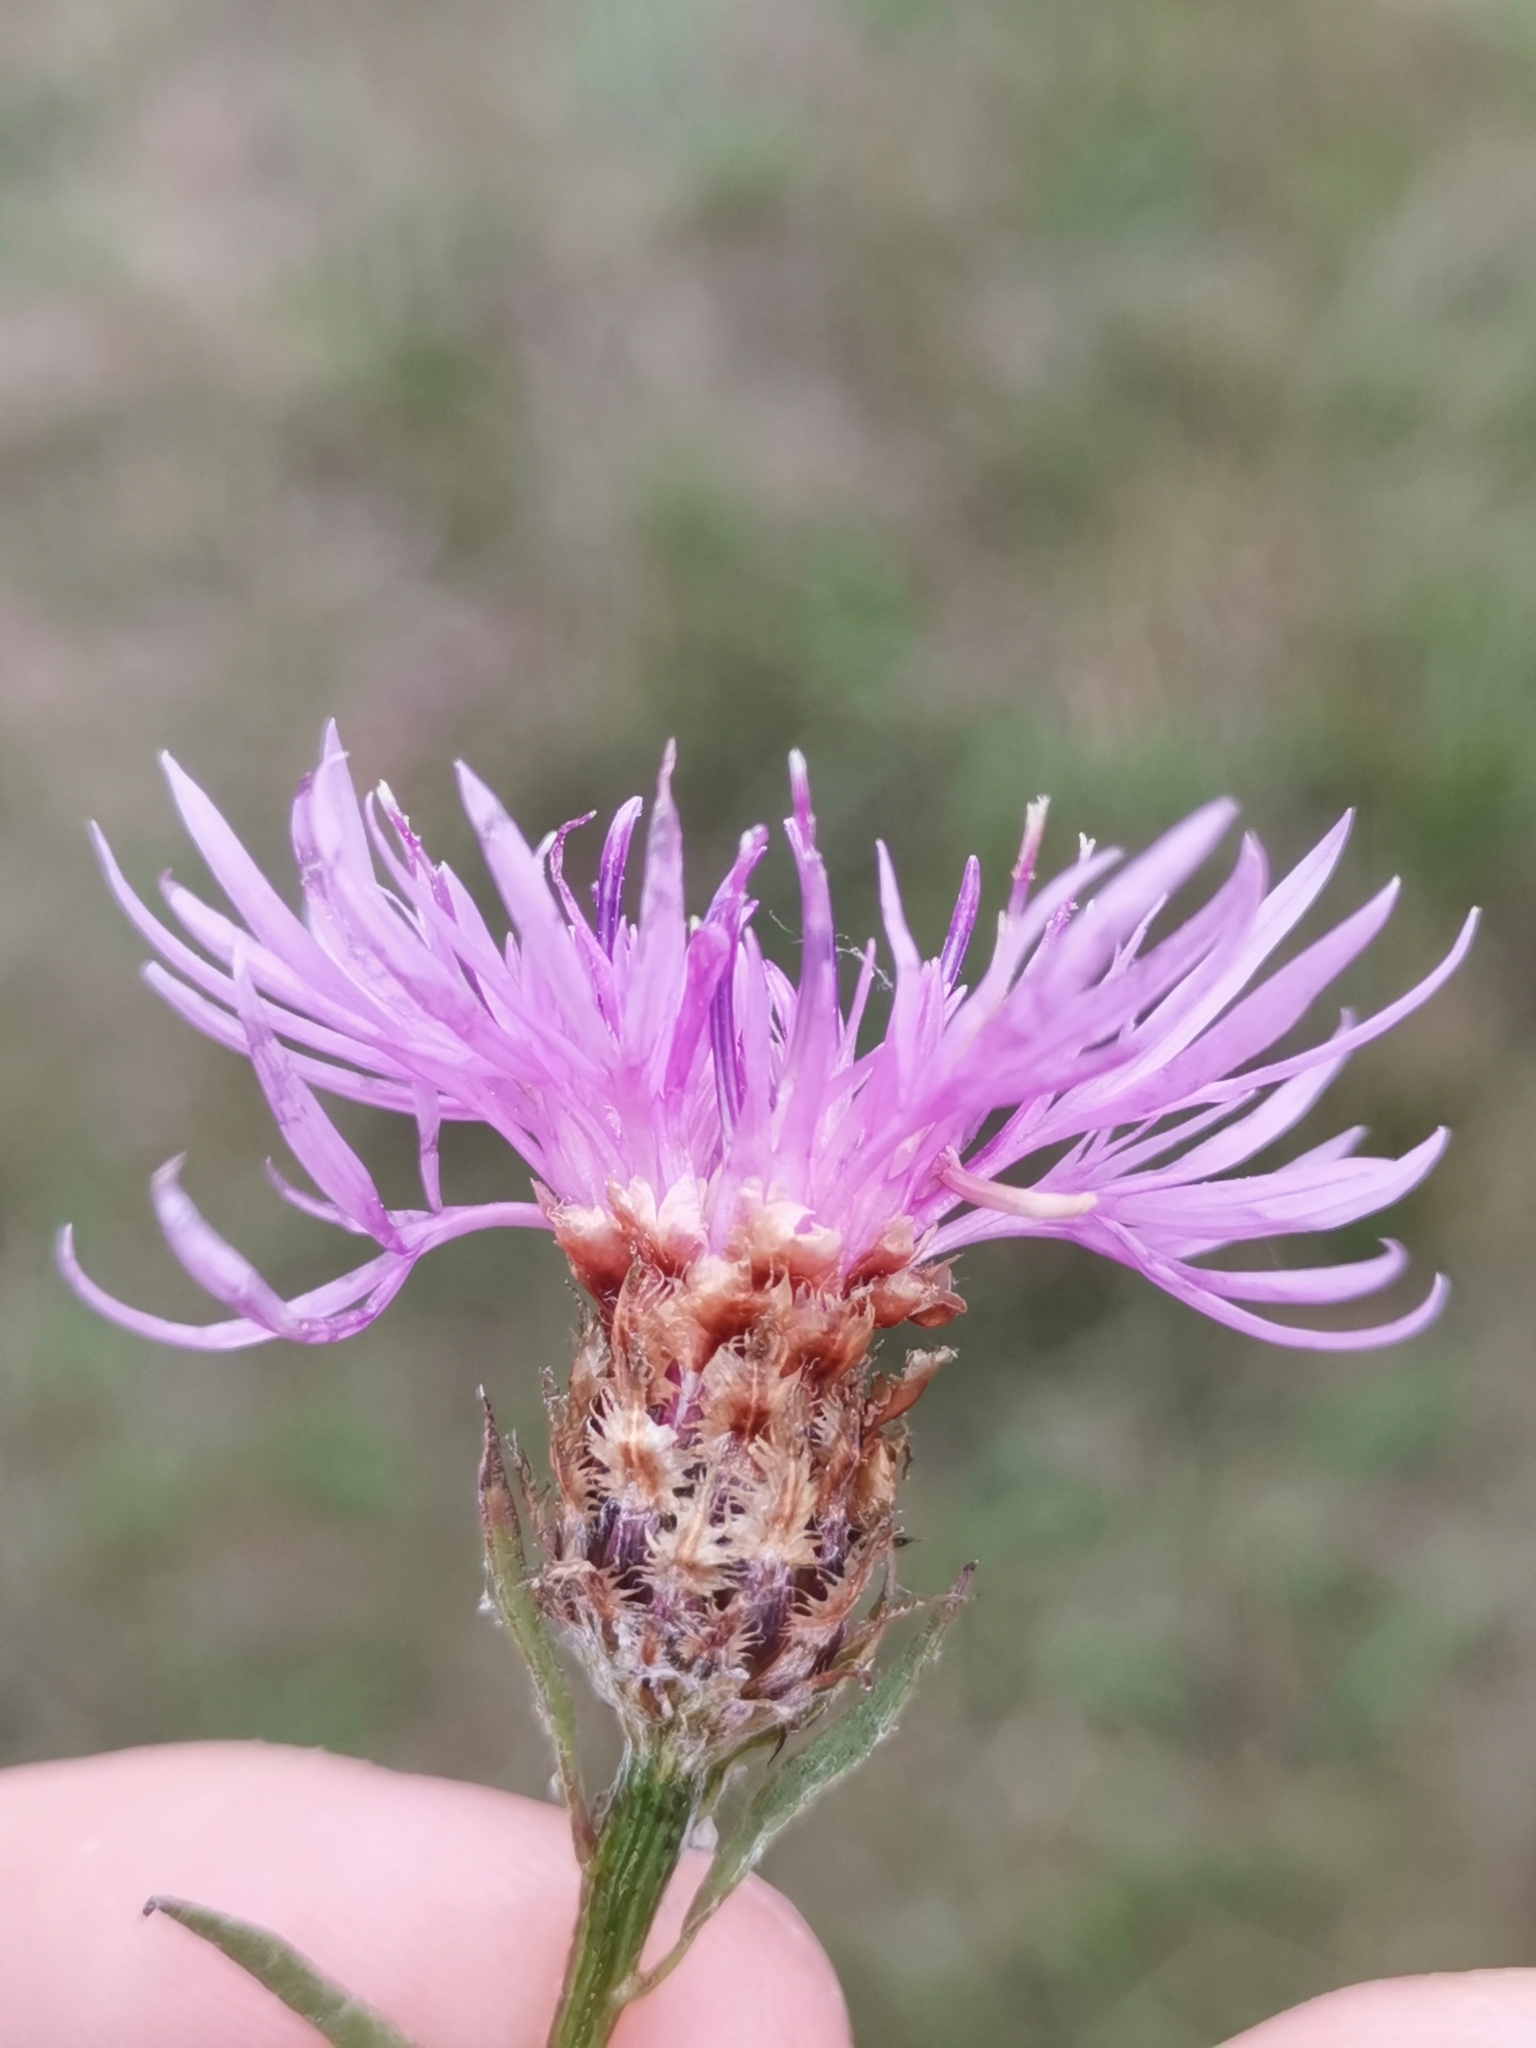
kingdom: Plantae
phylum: Tracheophyta
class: Magnoliopsida
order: Asterales
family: Asteraceae
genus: Centaurea
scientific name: Centaurea jacea
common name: Brown knapweed
